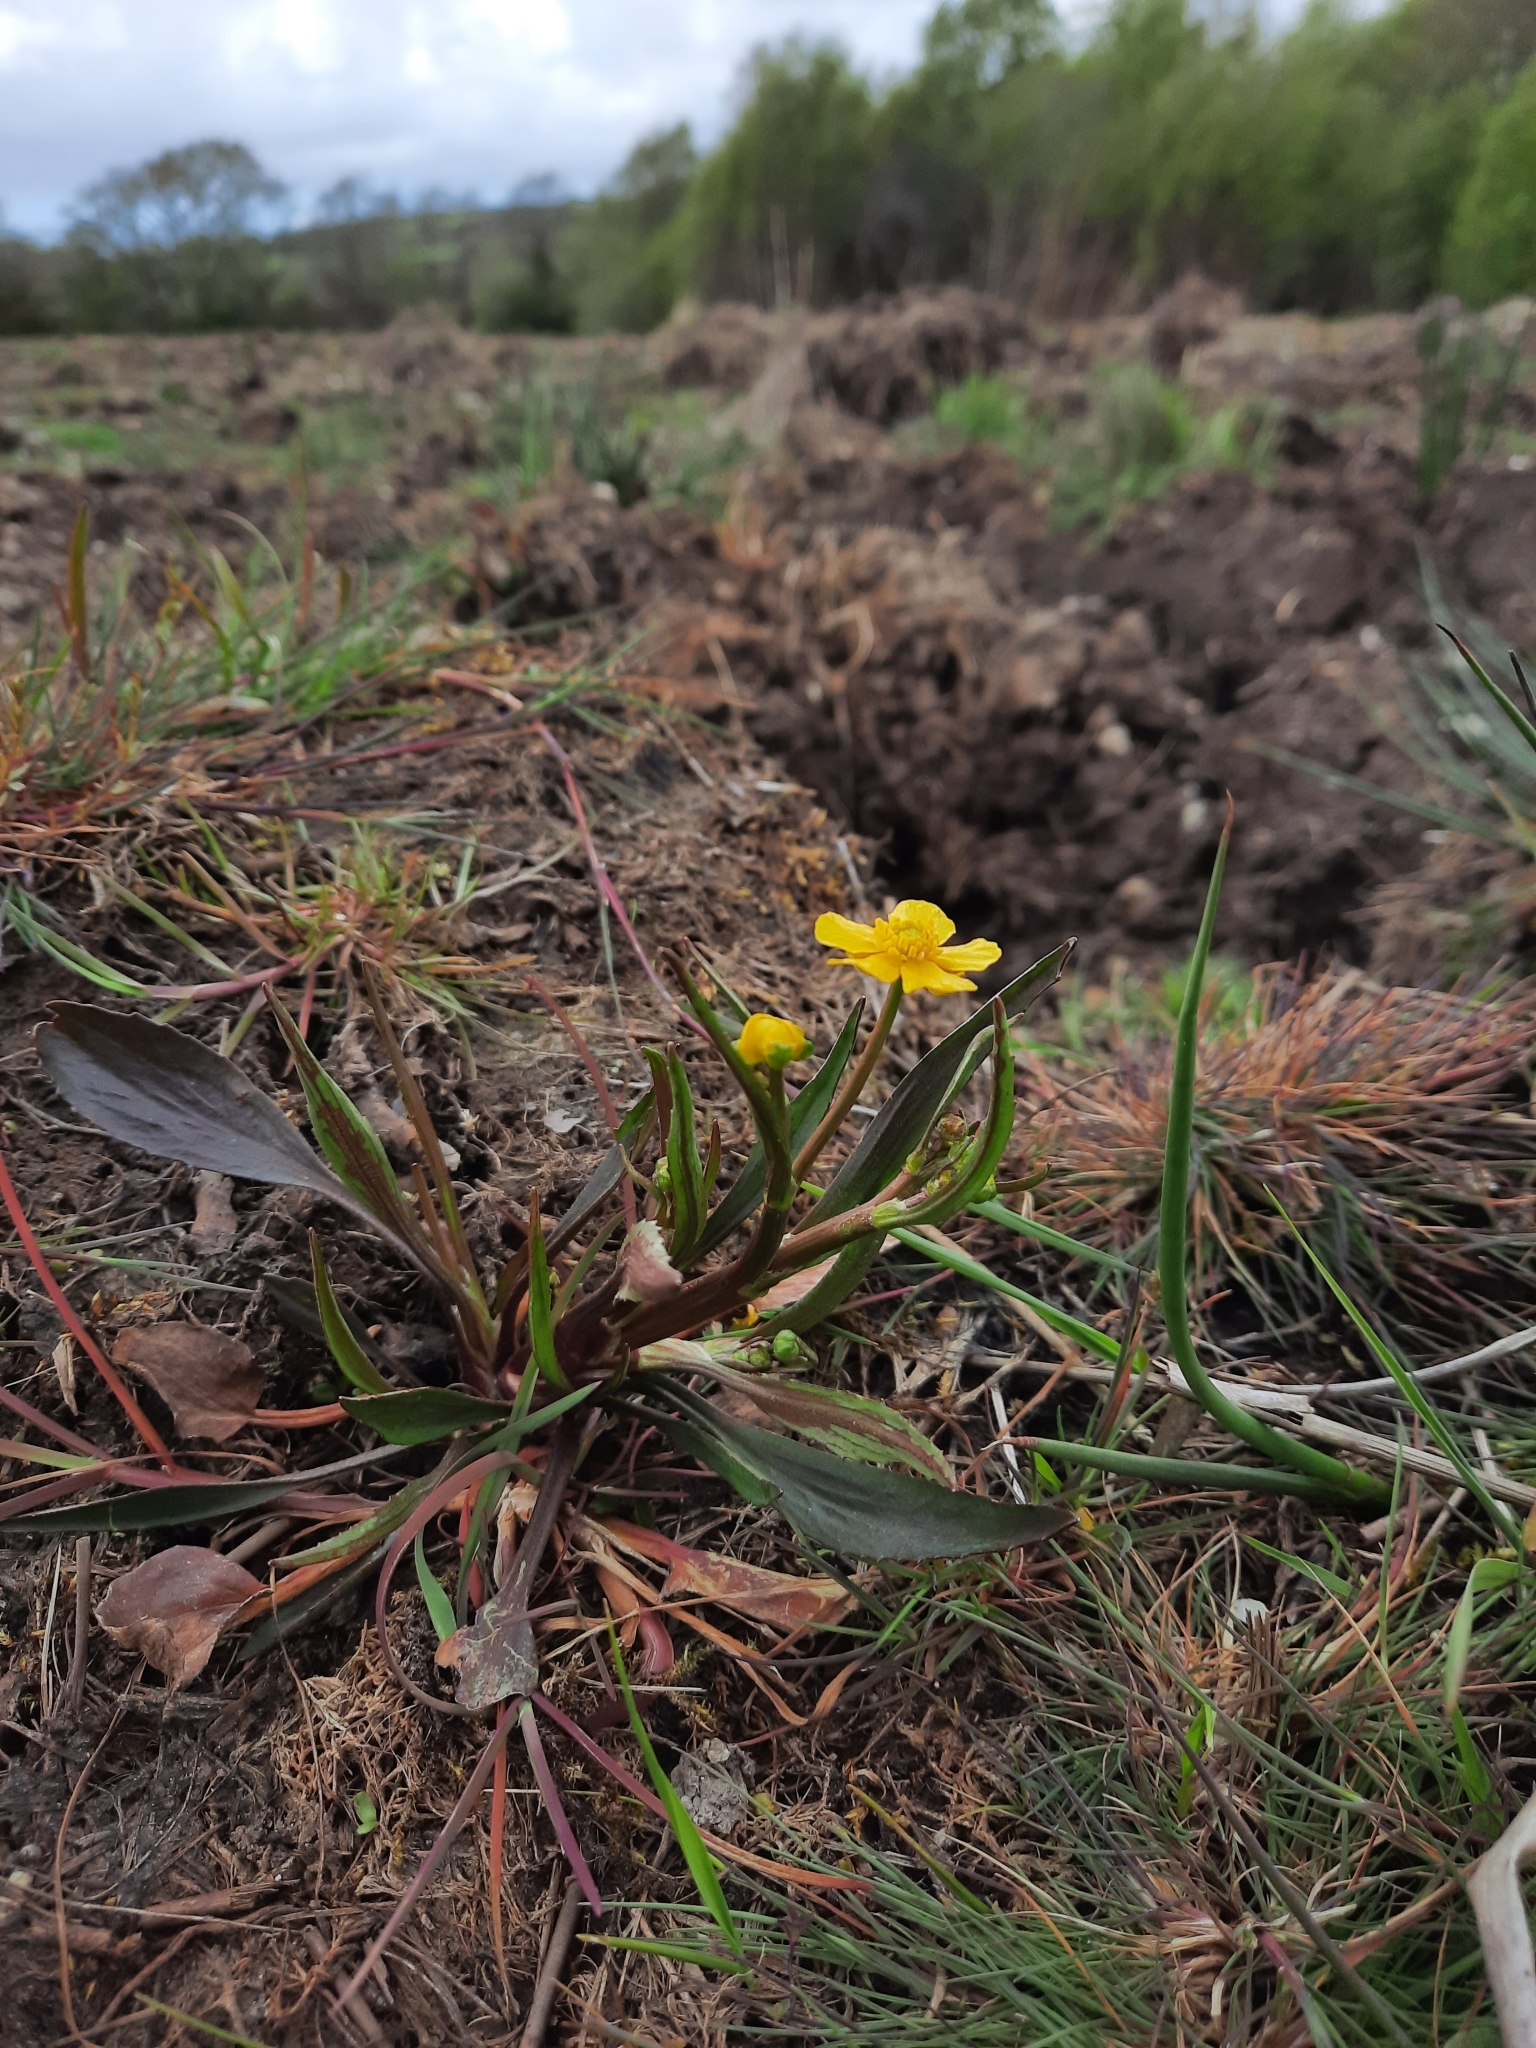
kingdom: Plantae
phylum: Tracheophyta
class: Magnoliopsida
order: Ranunculales
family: Ranunculaceae
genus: Ranunculus
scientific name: Ranunculus flammula
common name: Lesser spearwort
